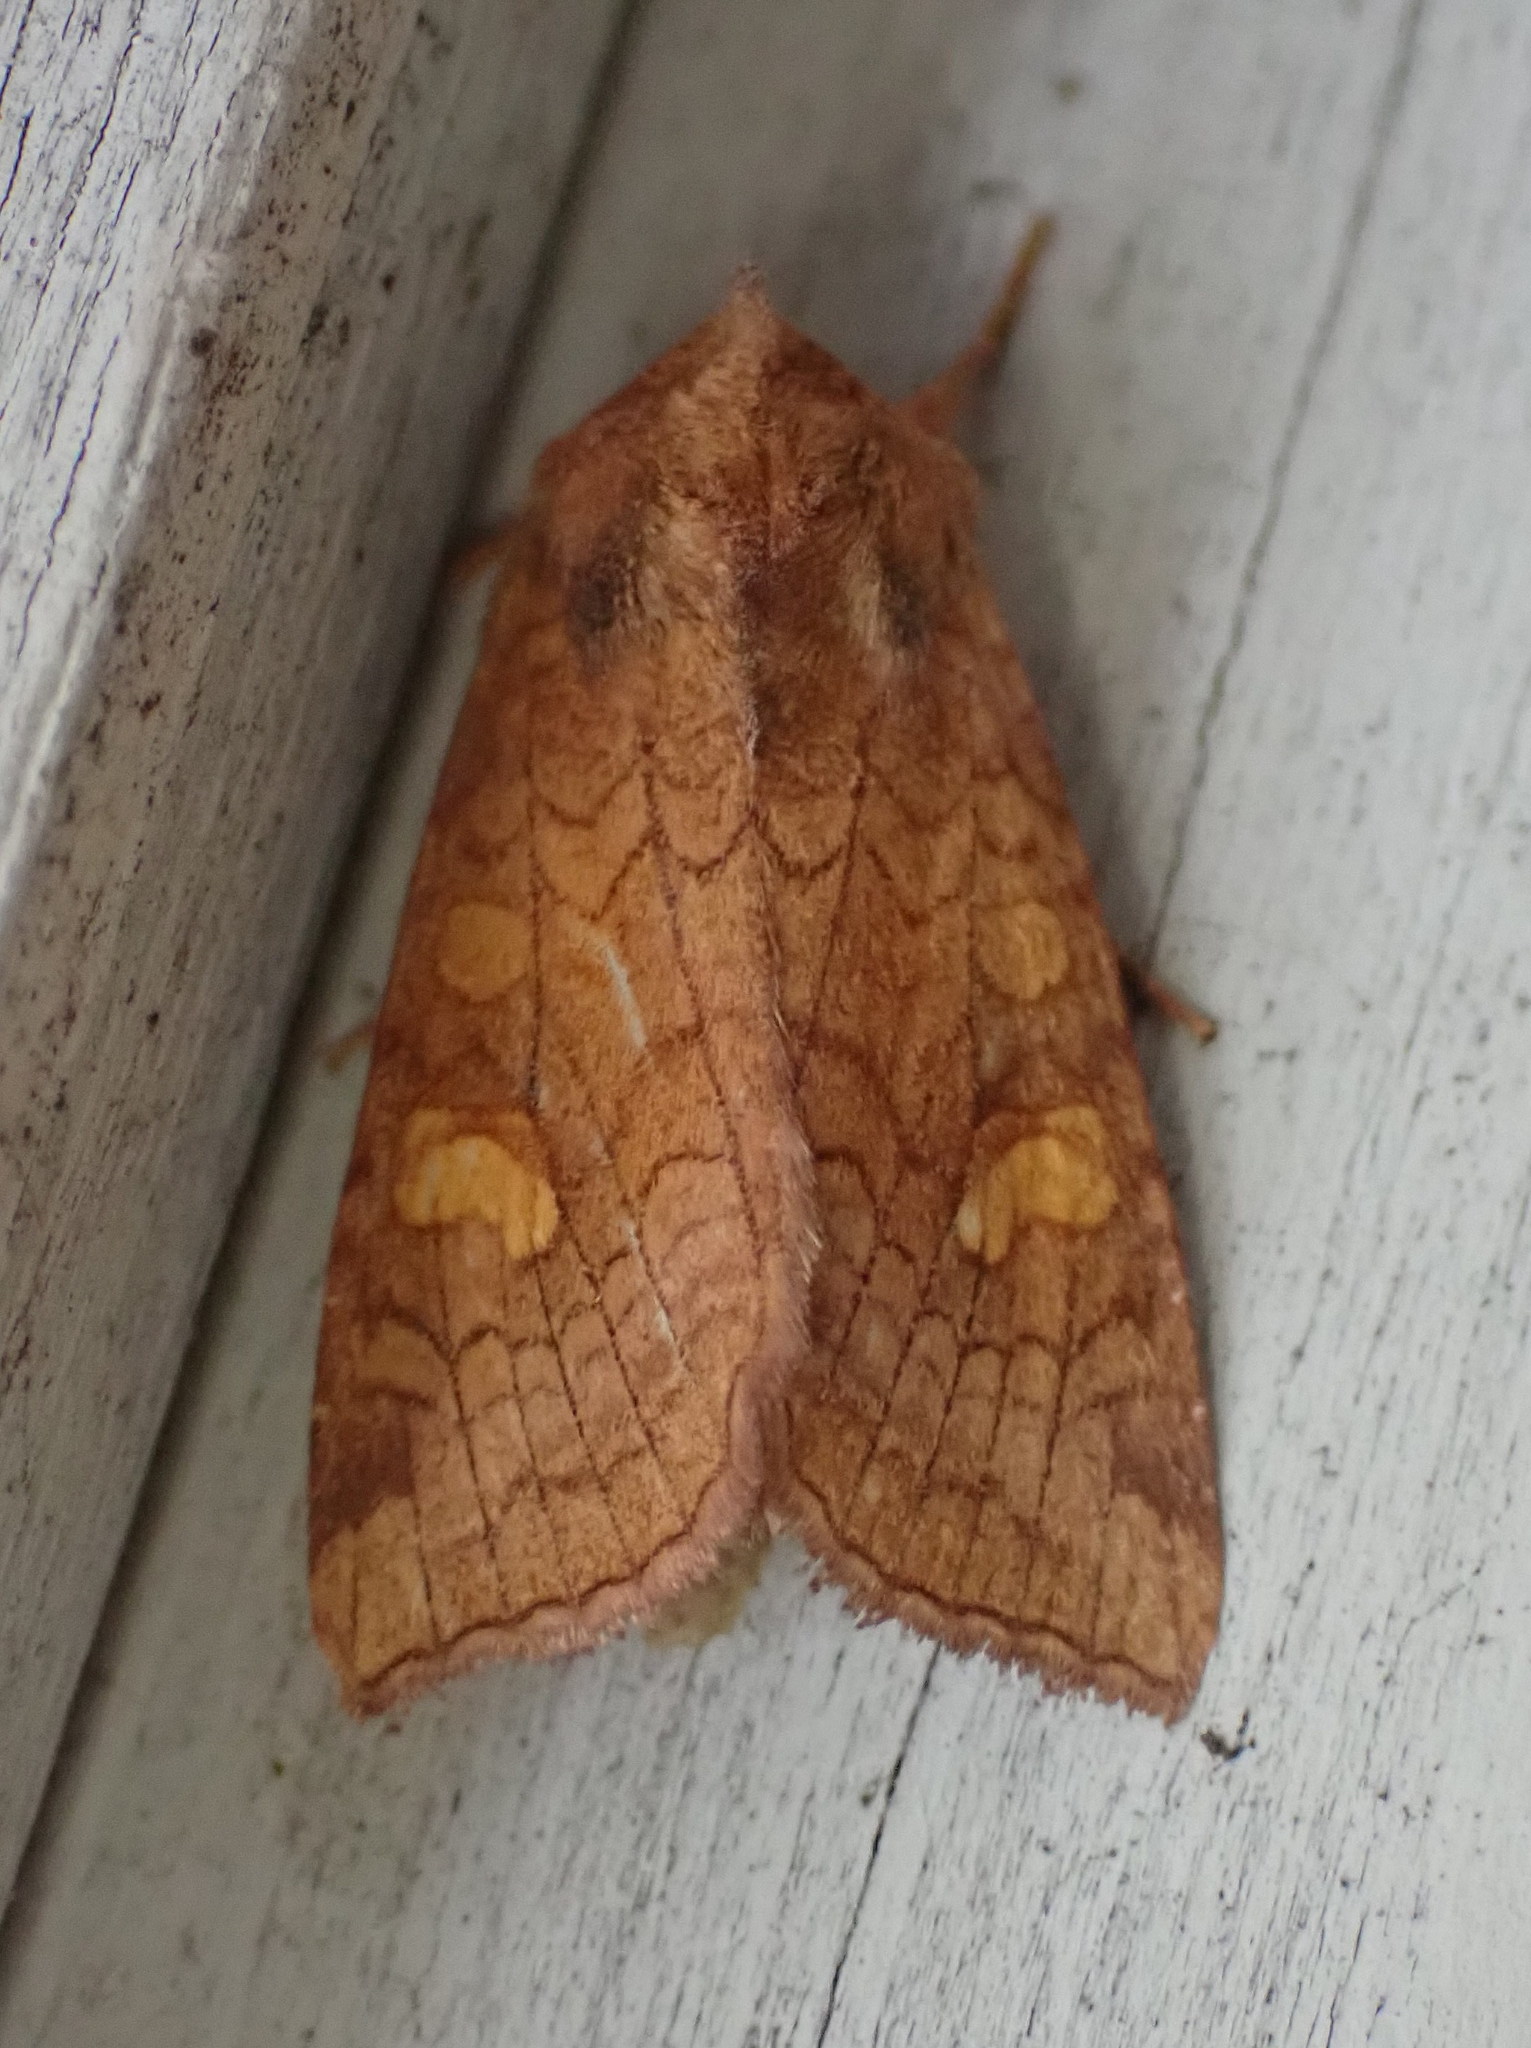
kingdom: Animalia
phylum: Arthropoda
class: Insecta
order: Lepidoptera
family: Noctuidae
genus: Amphipoea
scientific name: Amphipoea americana
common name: American ear moth
